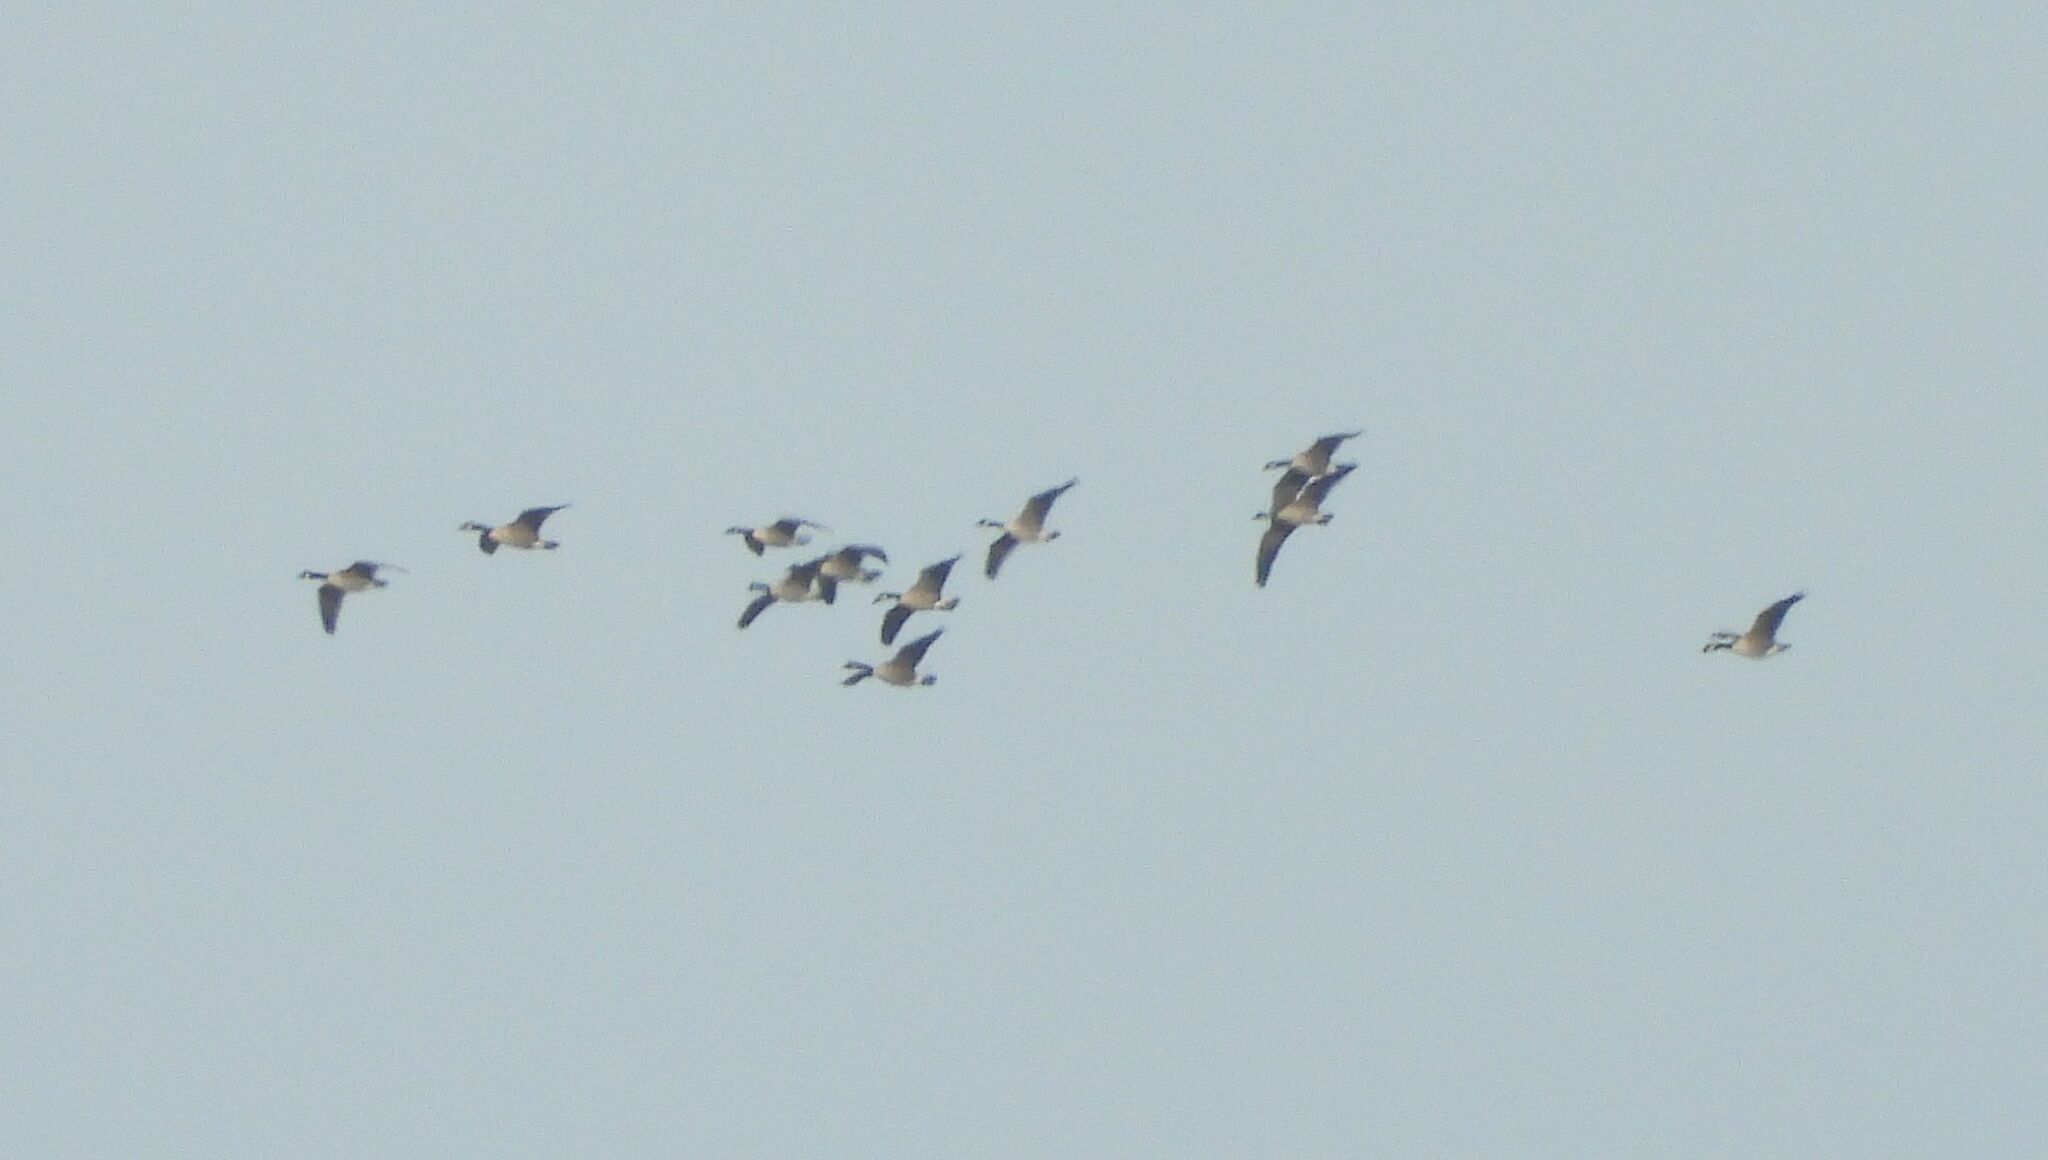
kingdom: Animalia
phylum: Chordata
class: Aves
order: Anseriformes
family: Anatidae
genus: Branta
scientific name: Branta canadensis
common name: Canada goose
